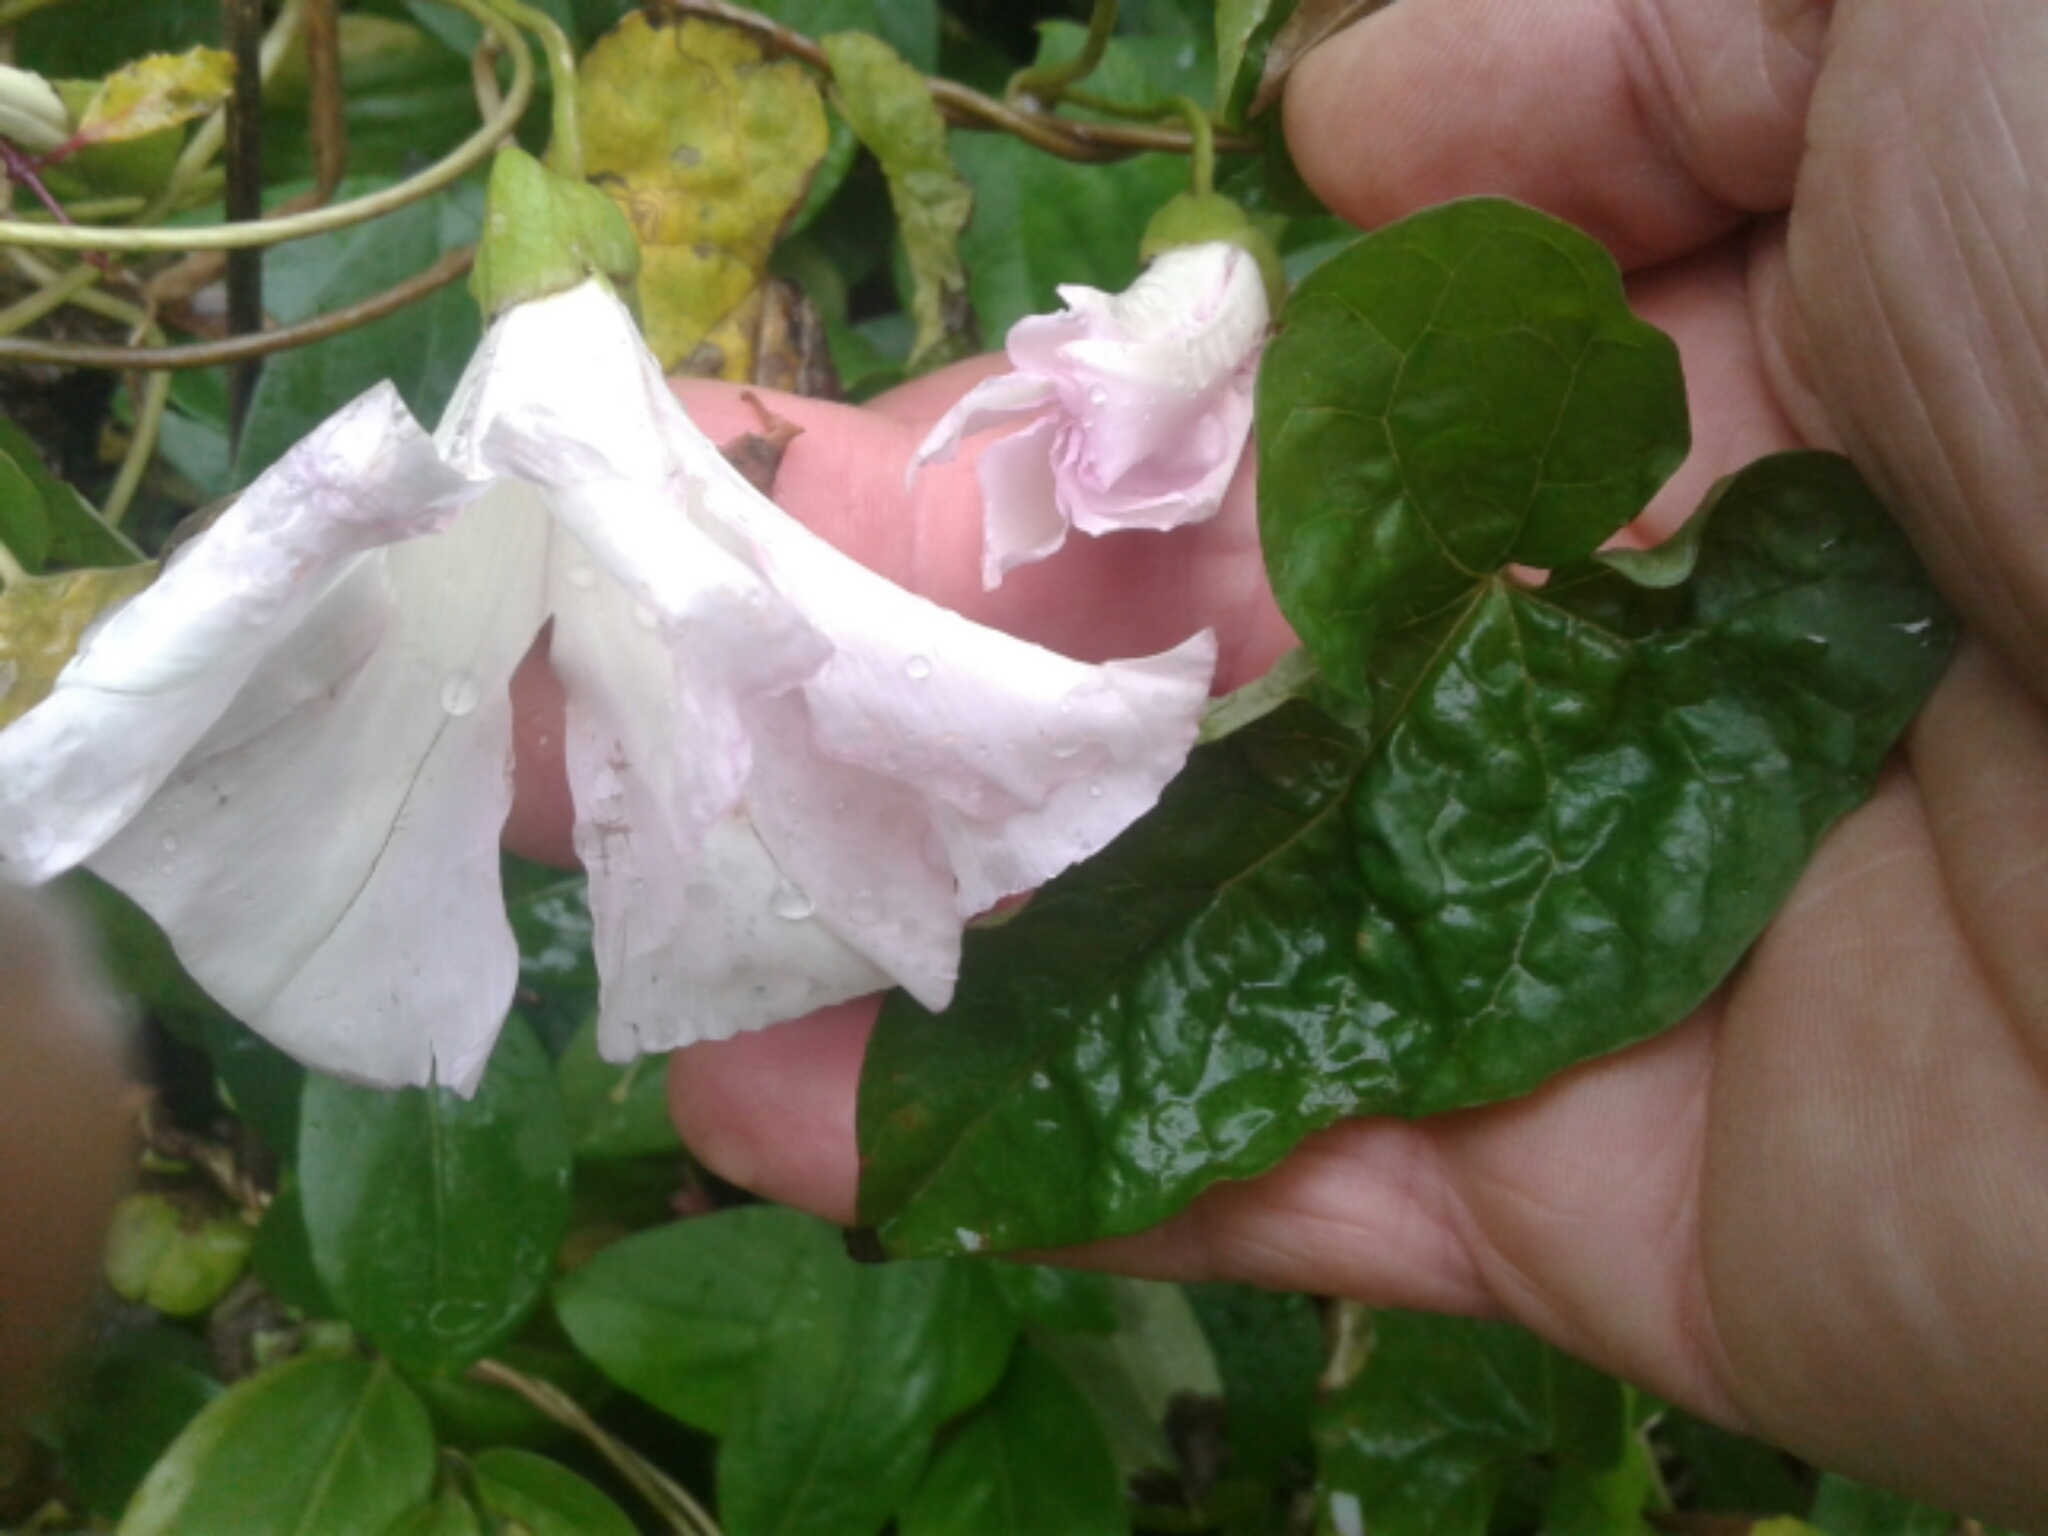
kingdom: Plantae
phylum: Tracheophyta
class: Magnoliopsida
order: Solanales
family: Convolvulaceae
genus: Calystegia
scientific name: Calystegia sepium
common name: Hedge bindweed
